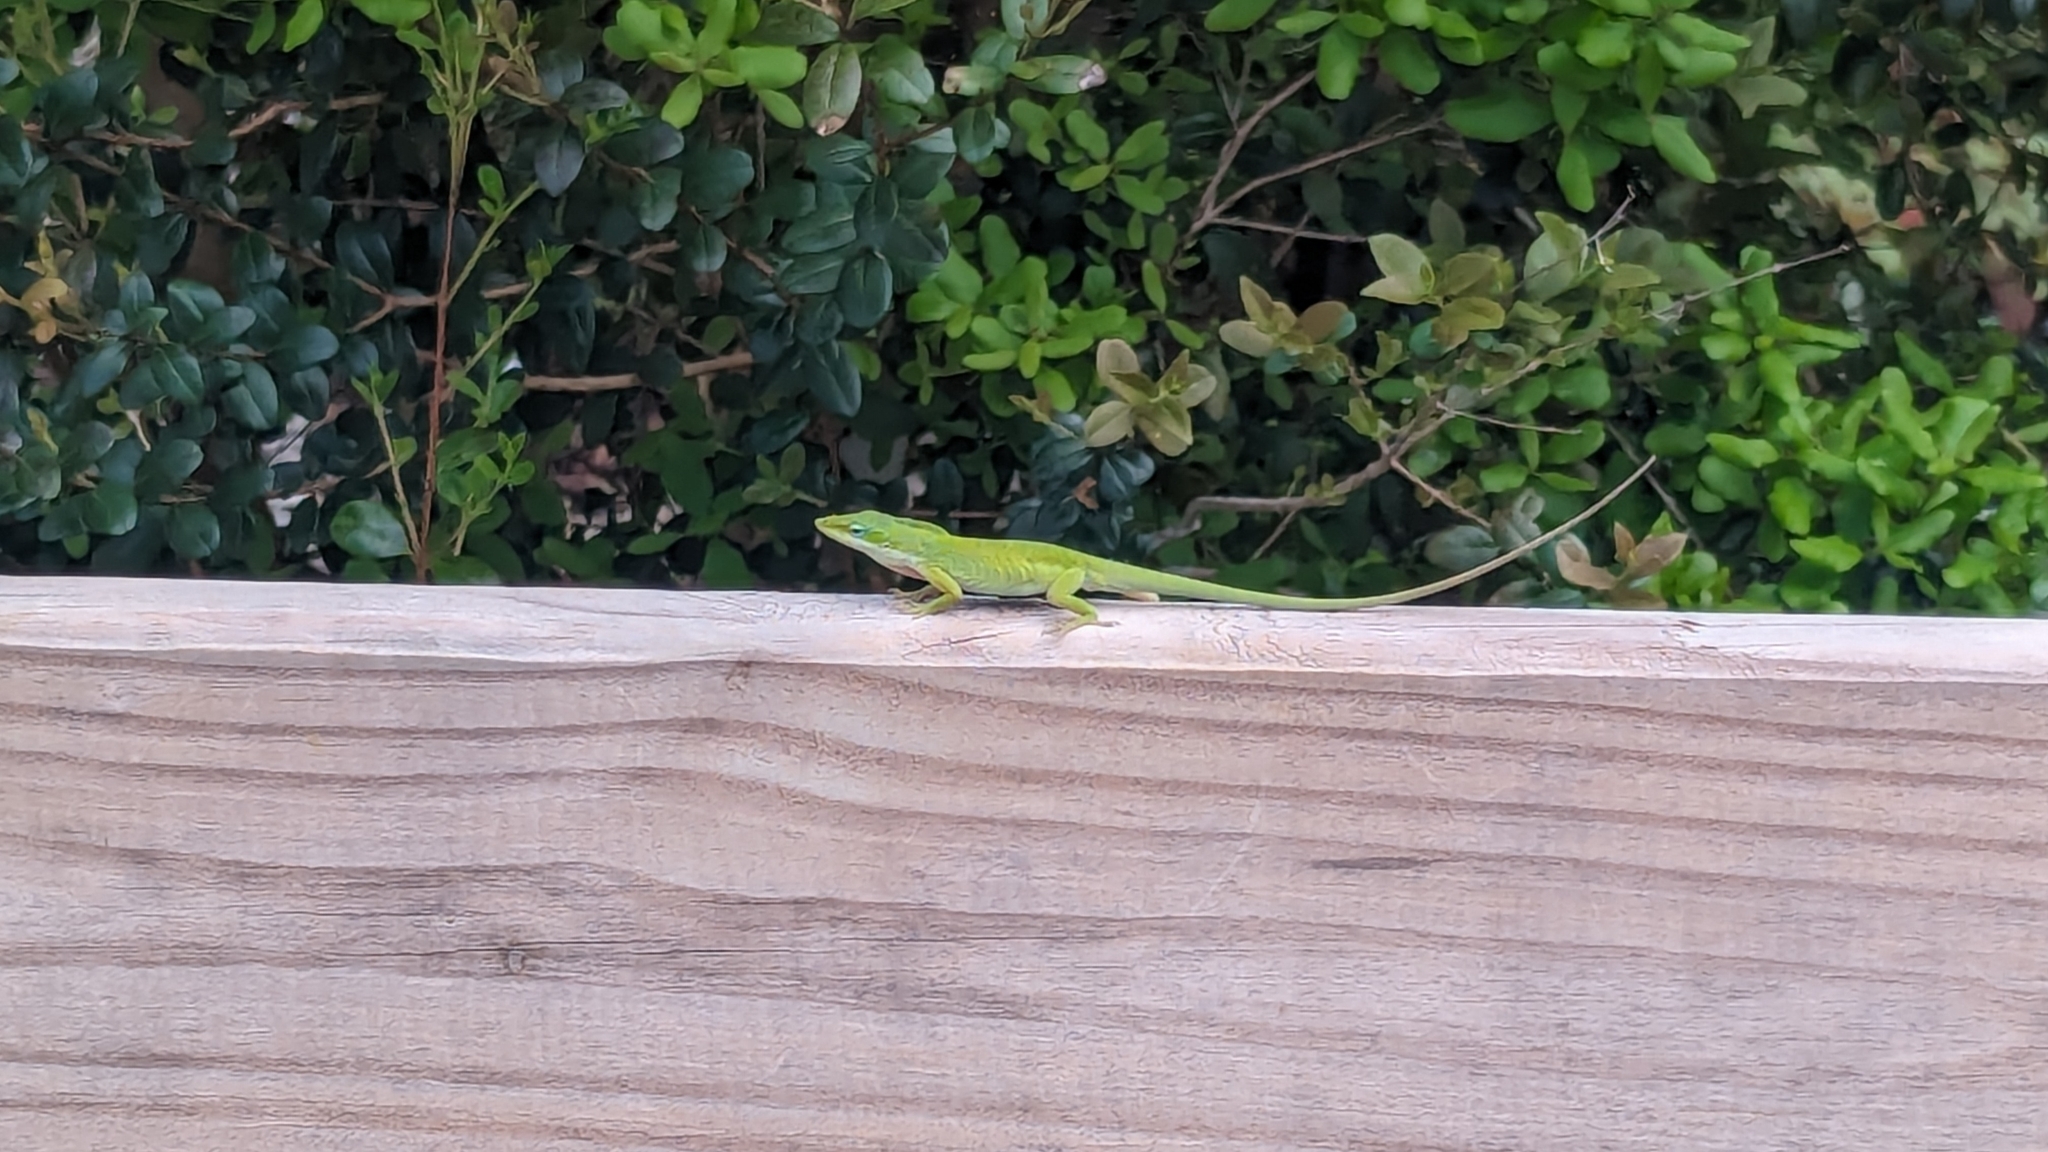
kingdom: Animalia
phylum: Chordata
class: Squamata
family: Dactyloidae
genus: Anolis
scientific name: Anolis carolinensis
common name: Green anole
